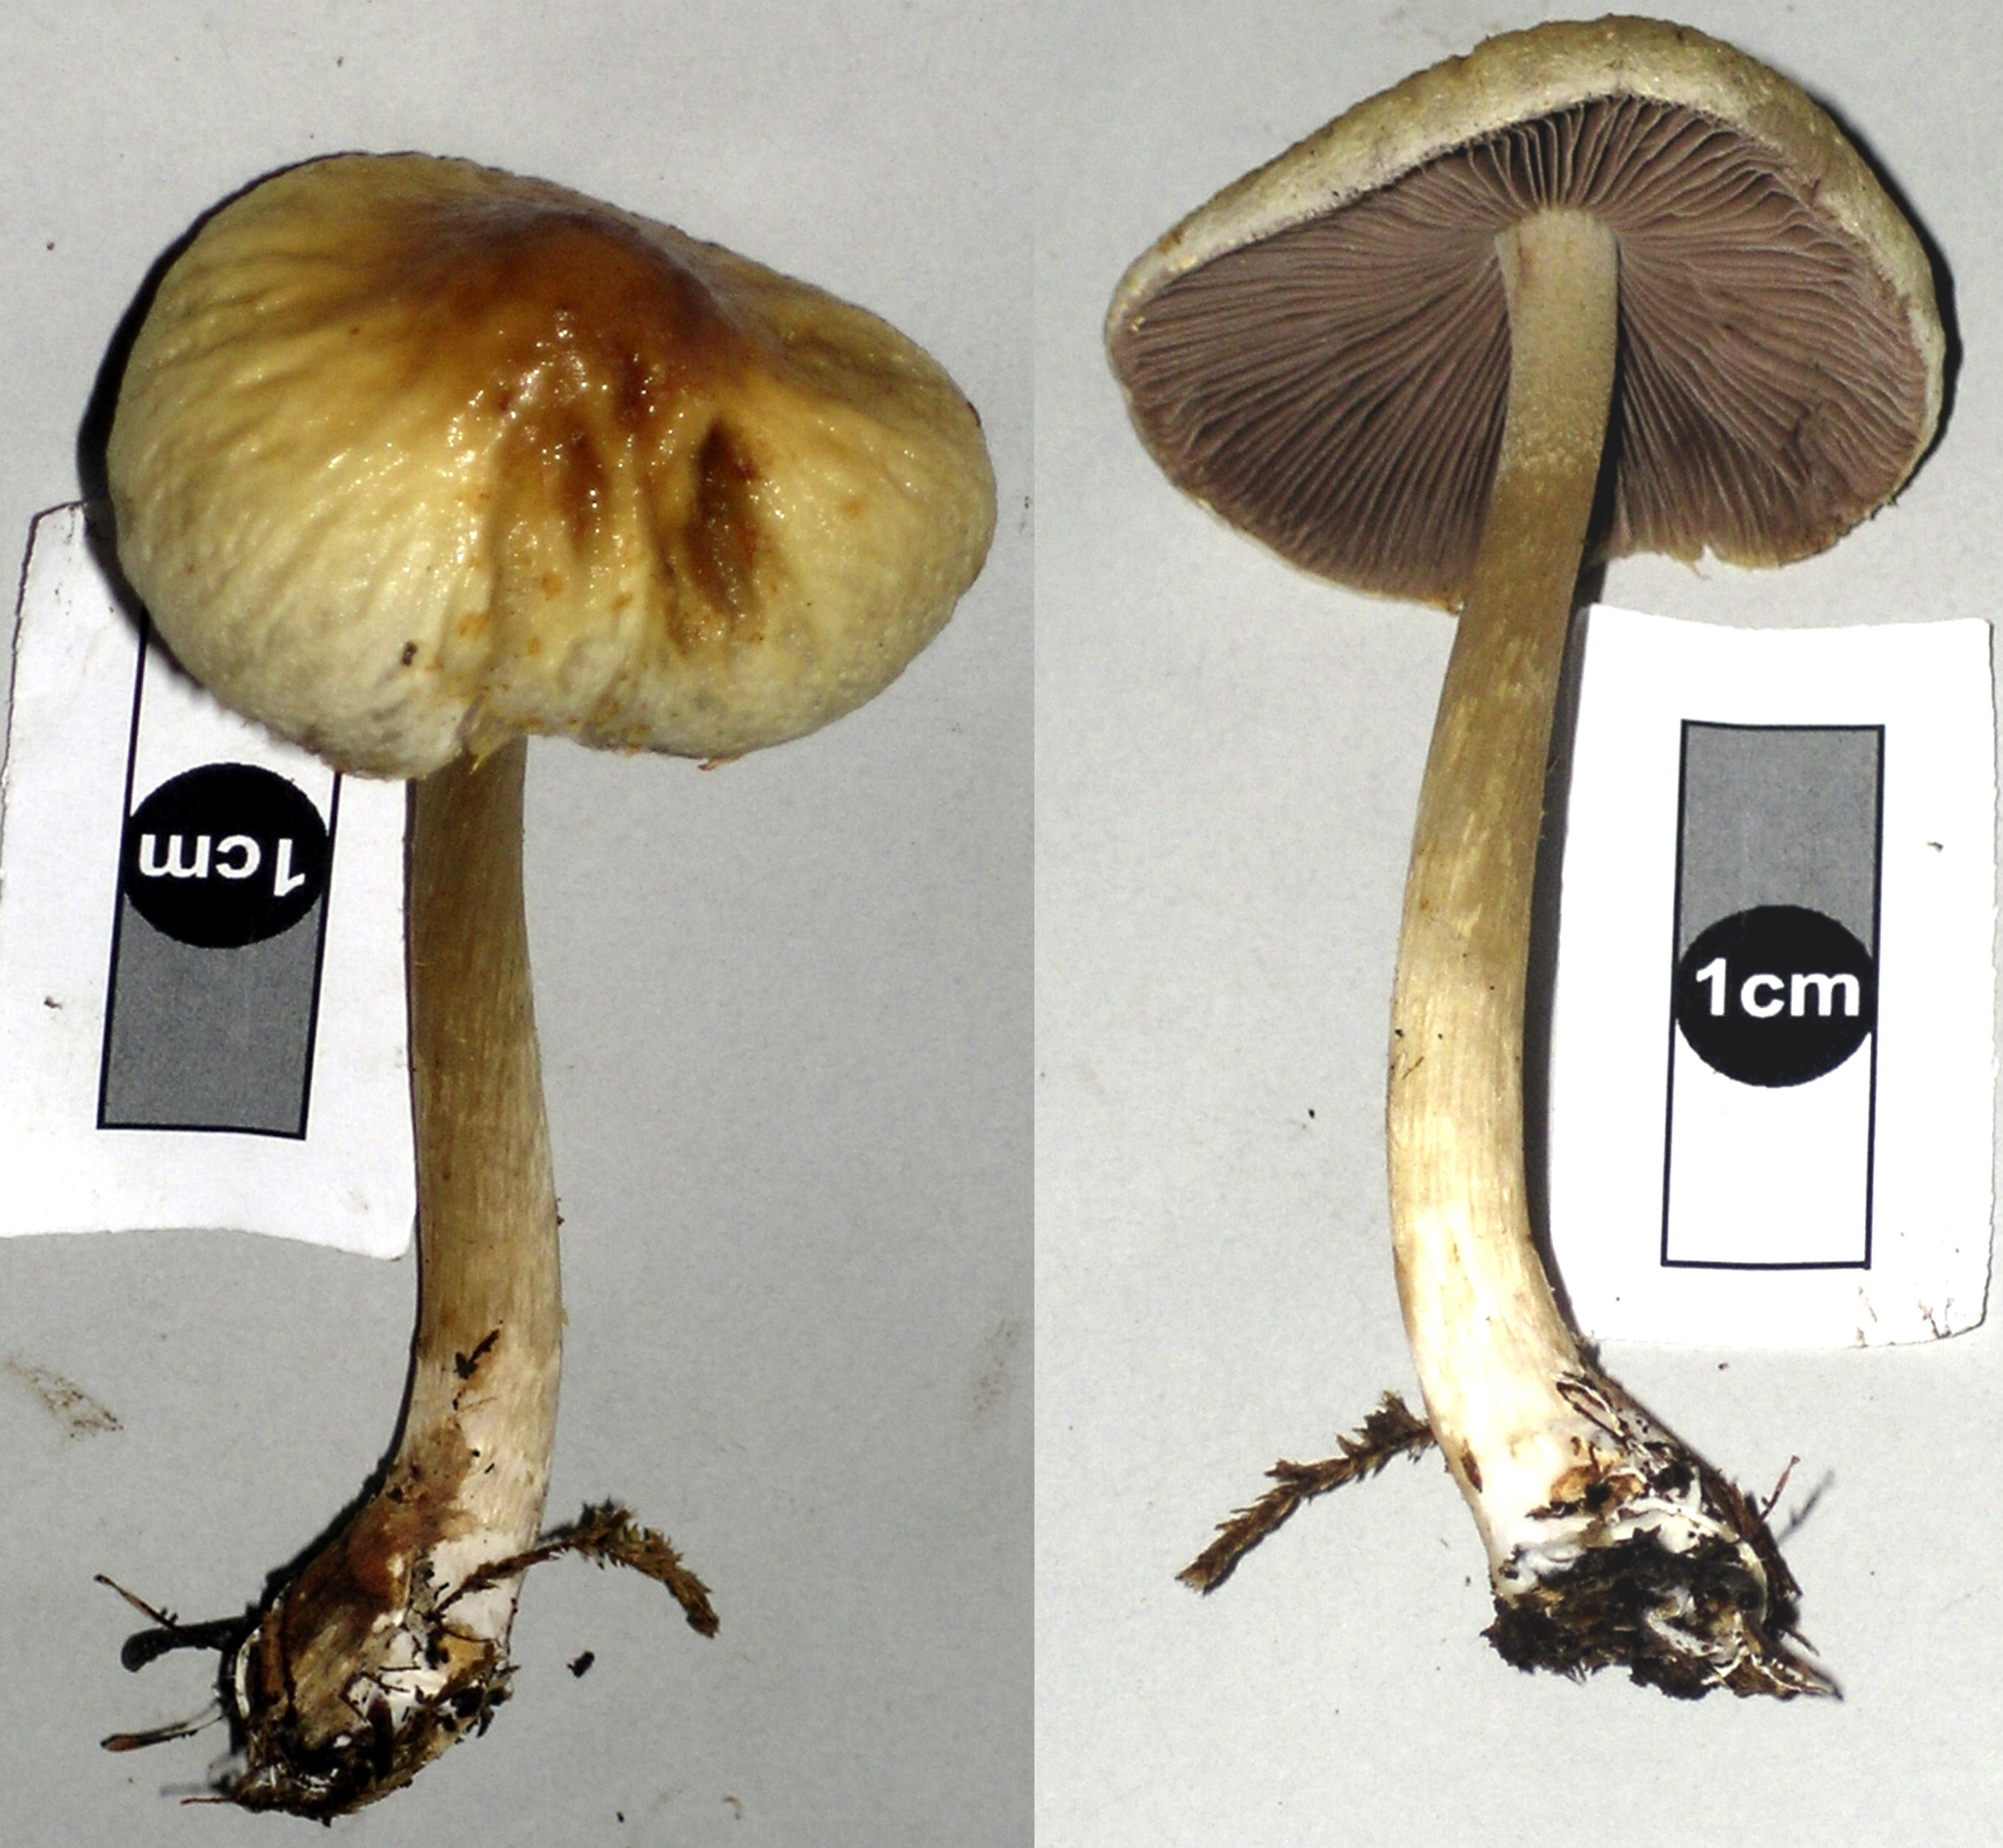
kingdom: Fungi
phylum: Basidiomycota
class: Agaricomycetes
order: Agaricales
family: Strophariaceae
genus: Agrocybe
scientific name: Agrocybe olivacea
